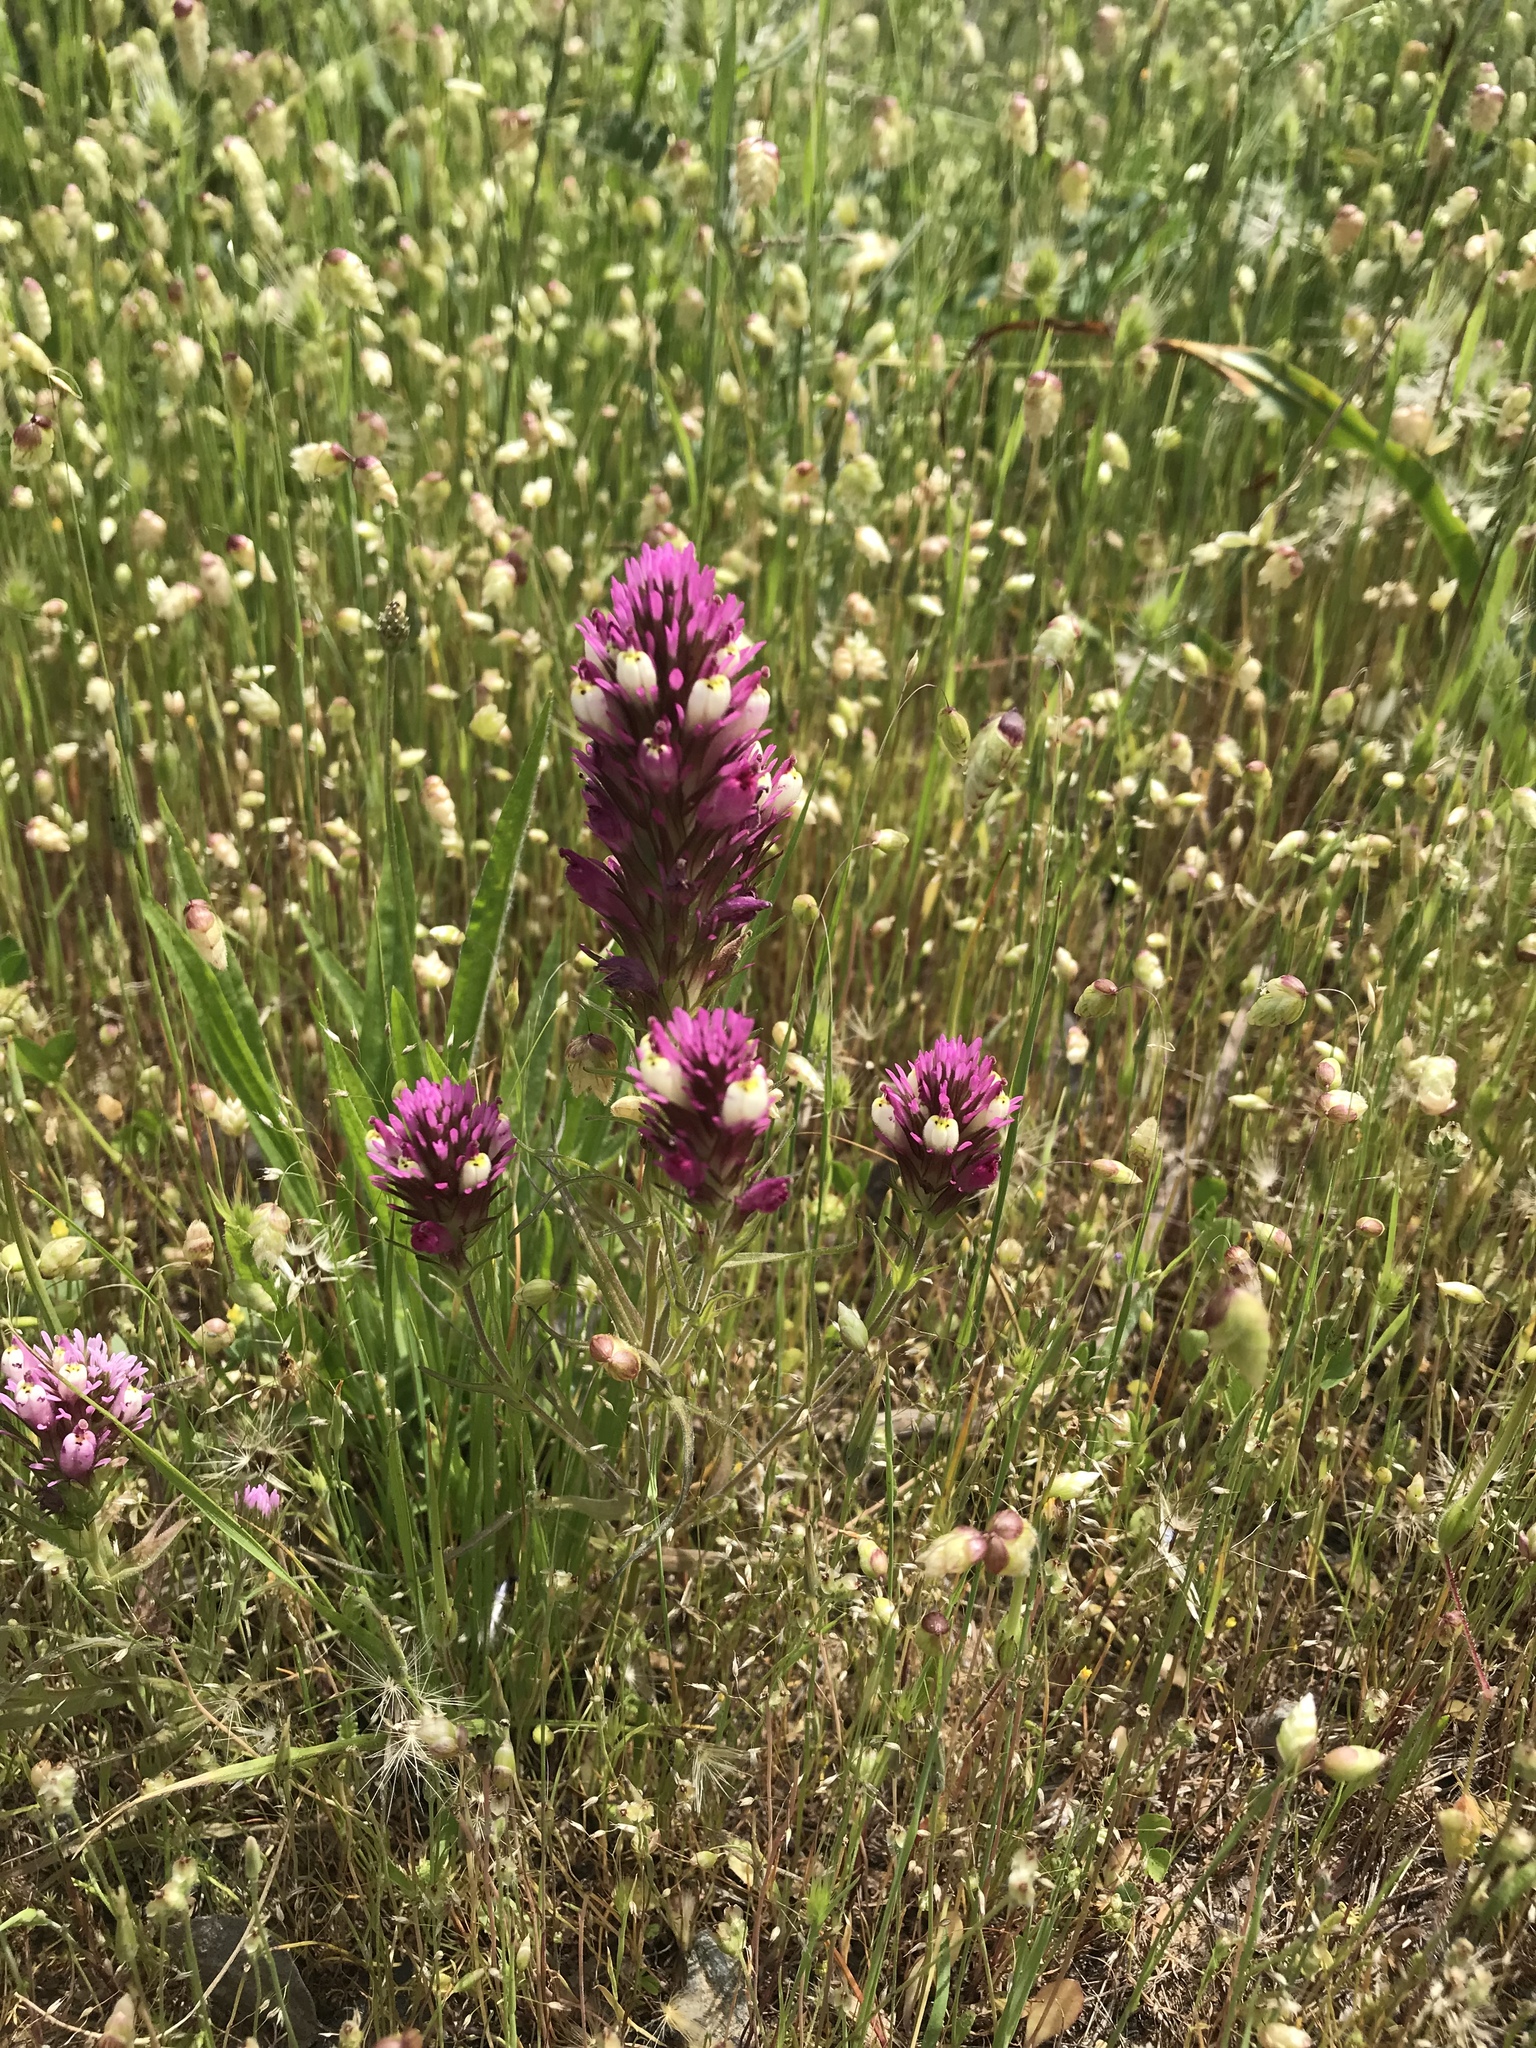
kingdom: Plantae
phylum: Tracheophyta
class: Magnoliopsida
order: Lamiales
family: Orobanchaceae
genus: Castilleja
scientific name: Castilleja densiflora
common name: Dense-flower indian paintbrush
